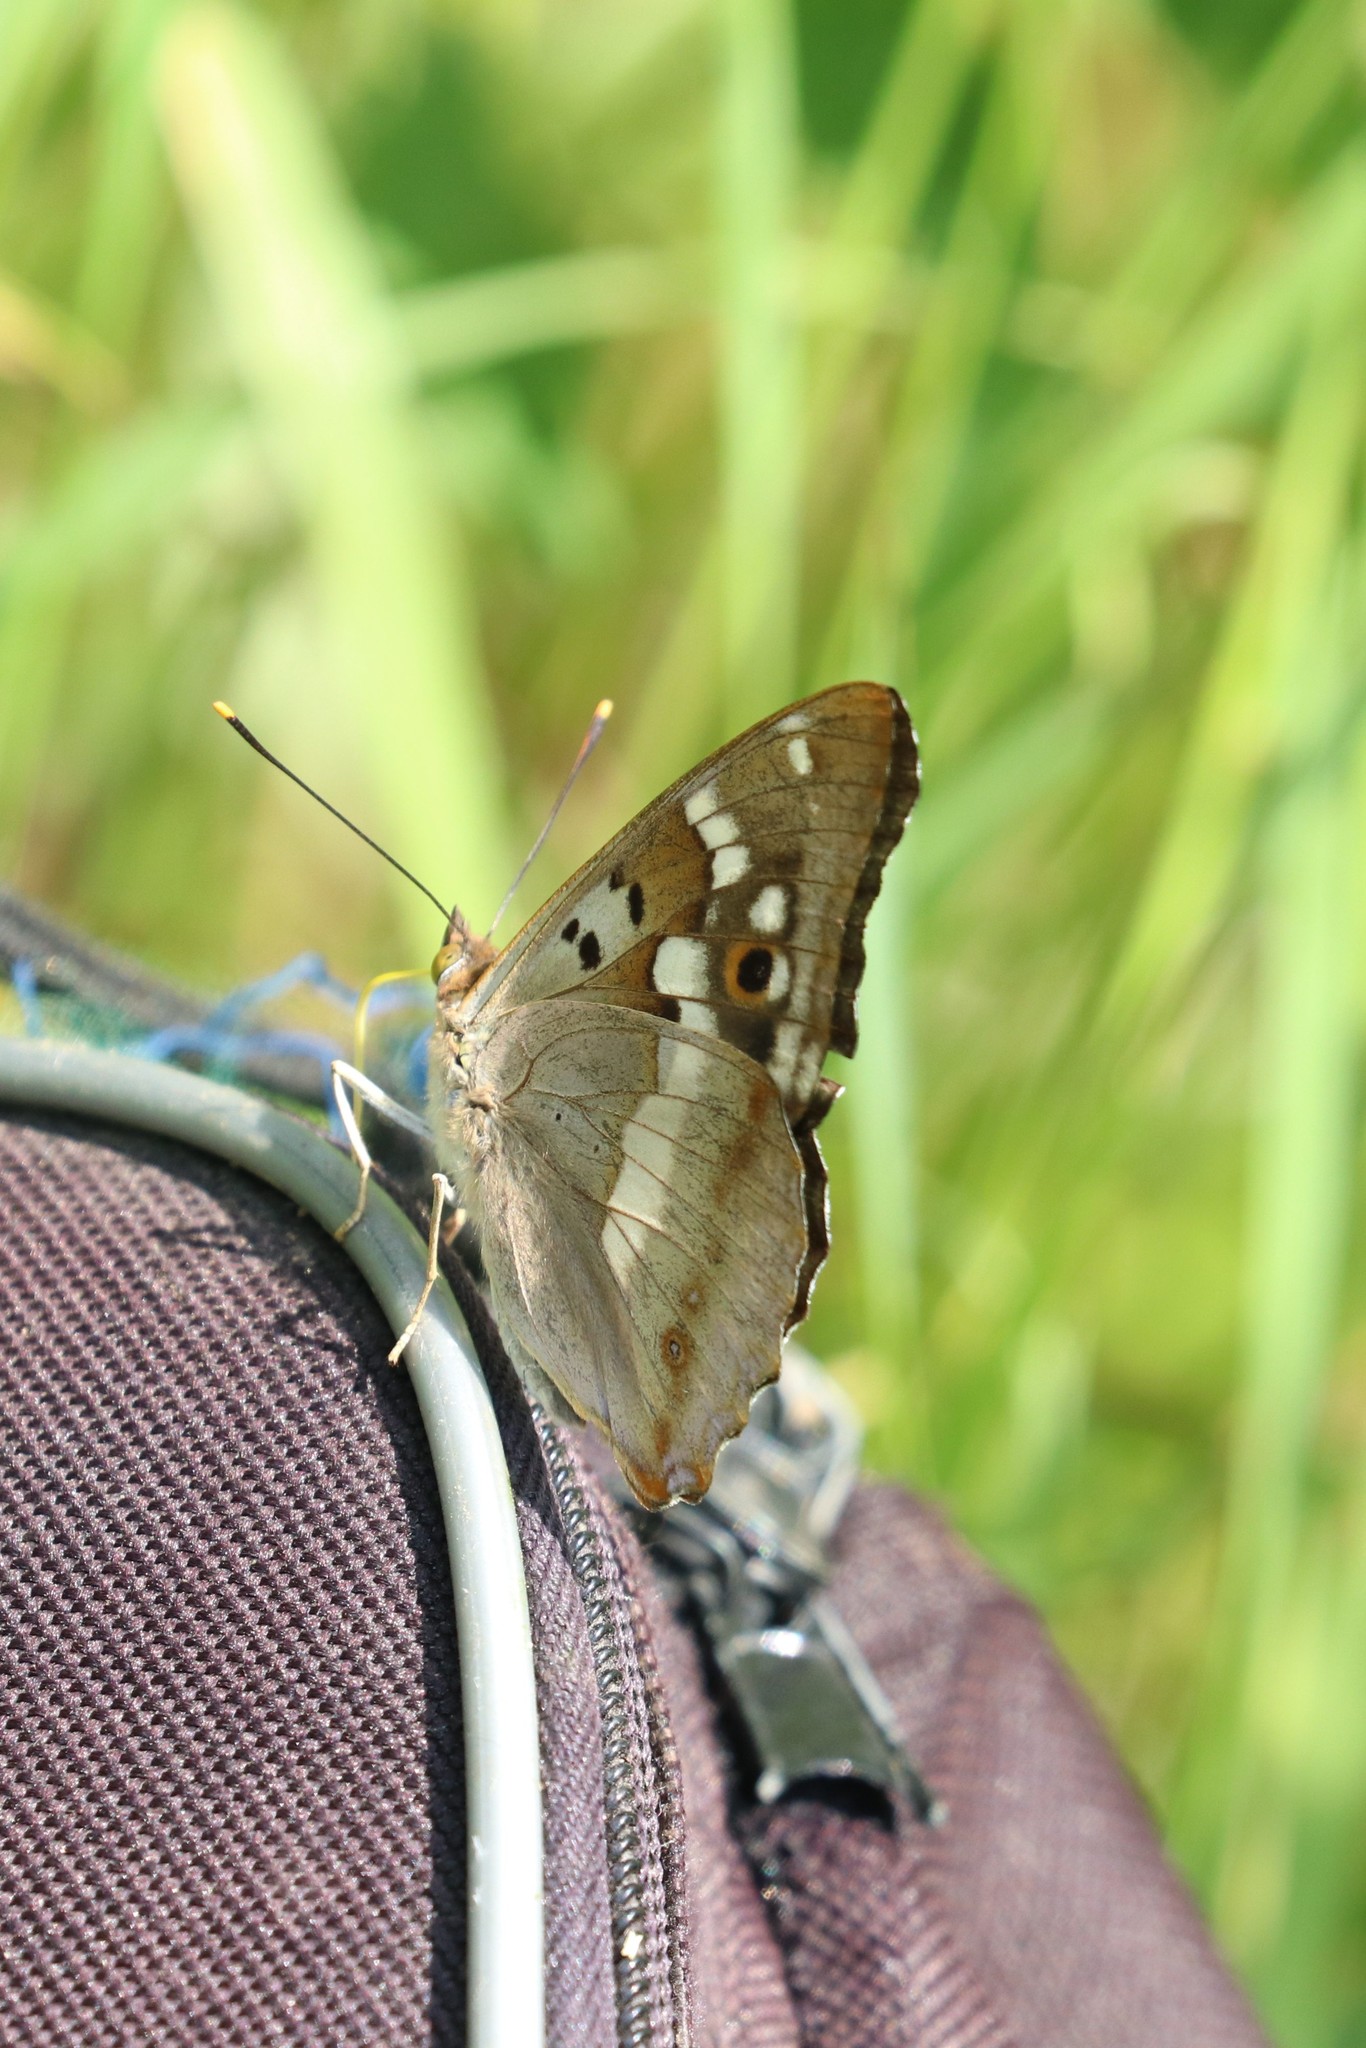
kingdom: Animalia
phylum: Arthropoda
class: Insecta
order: Lepidoptera
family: Nymphalidae
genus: Apatura
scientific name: Apatura ilia
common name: Lesser purple emperor
